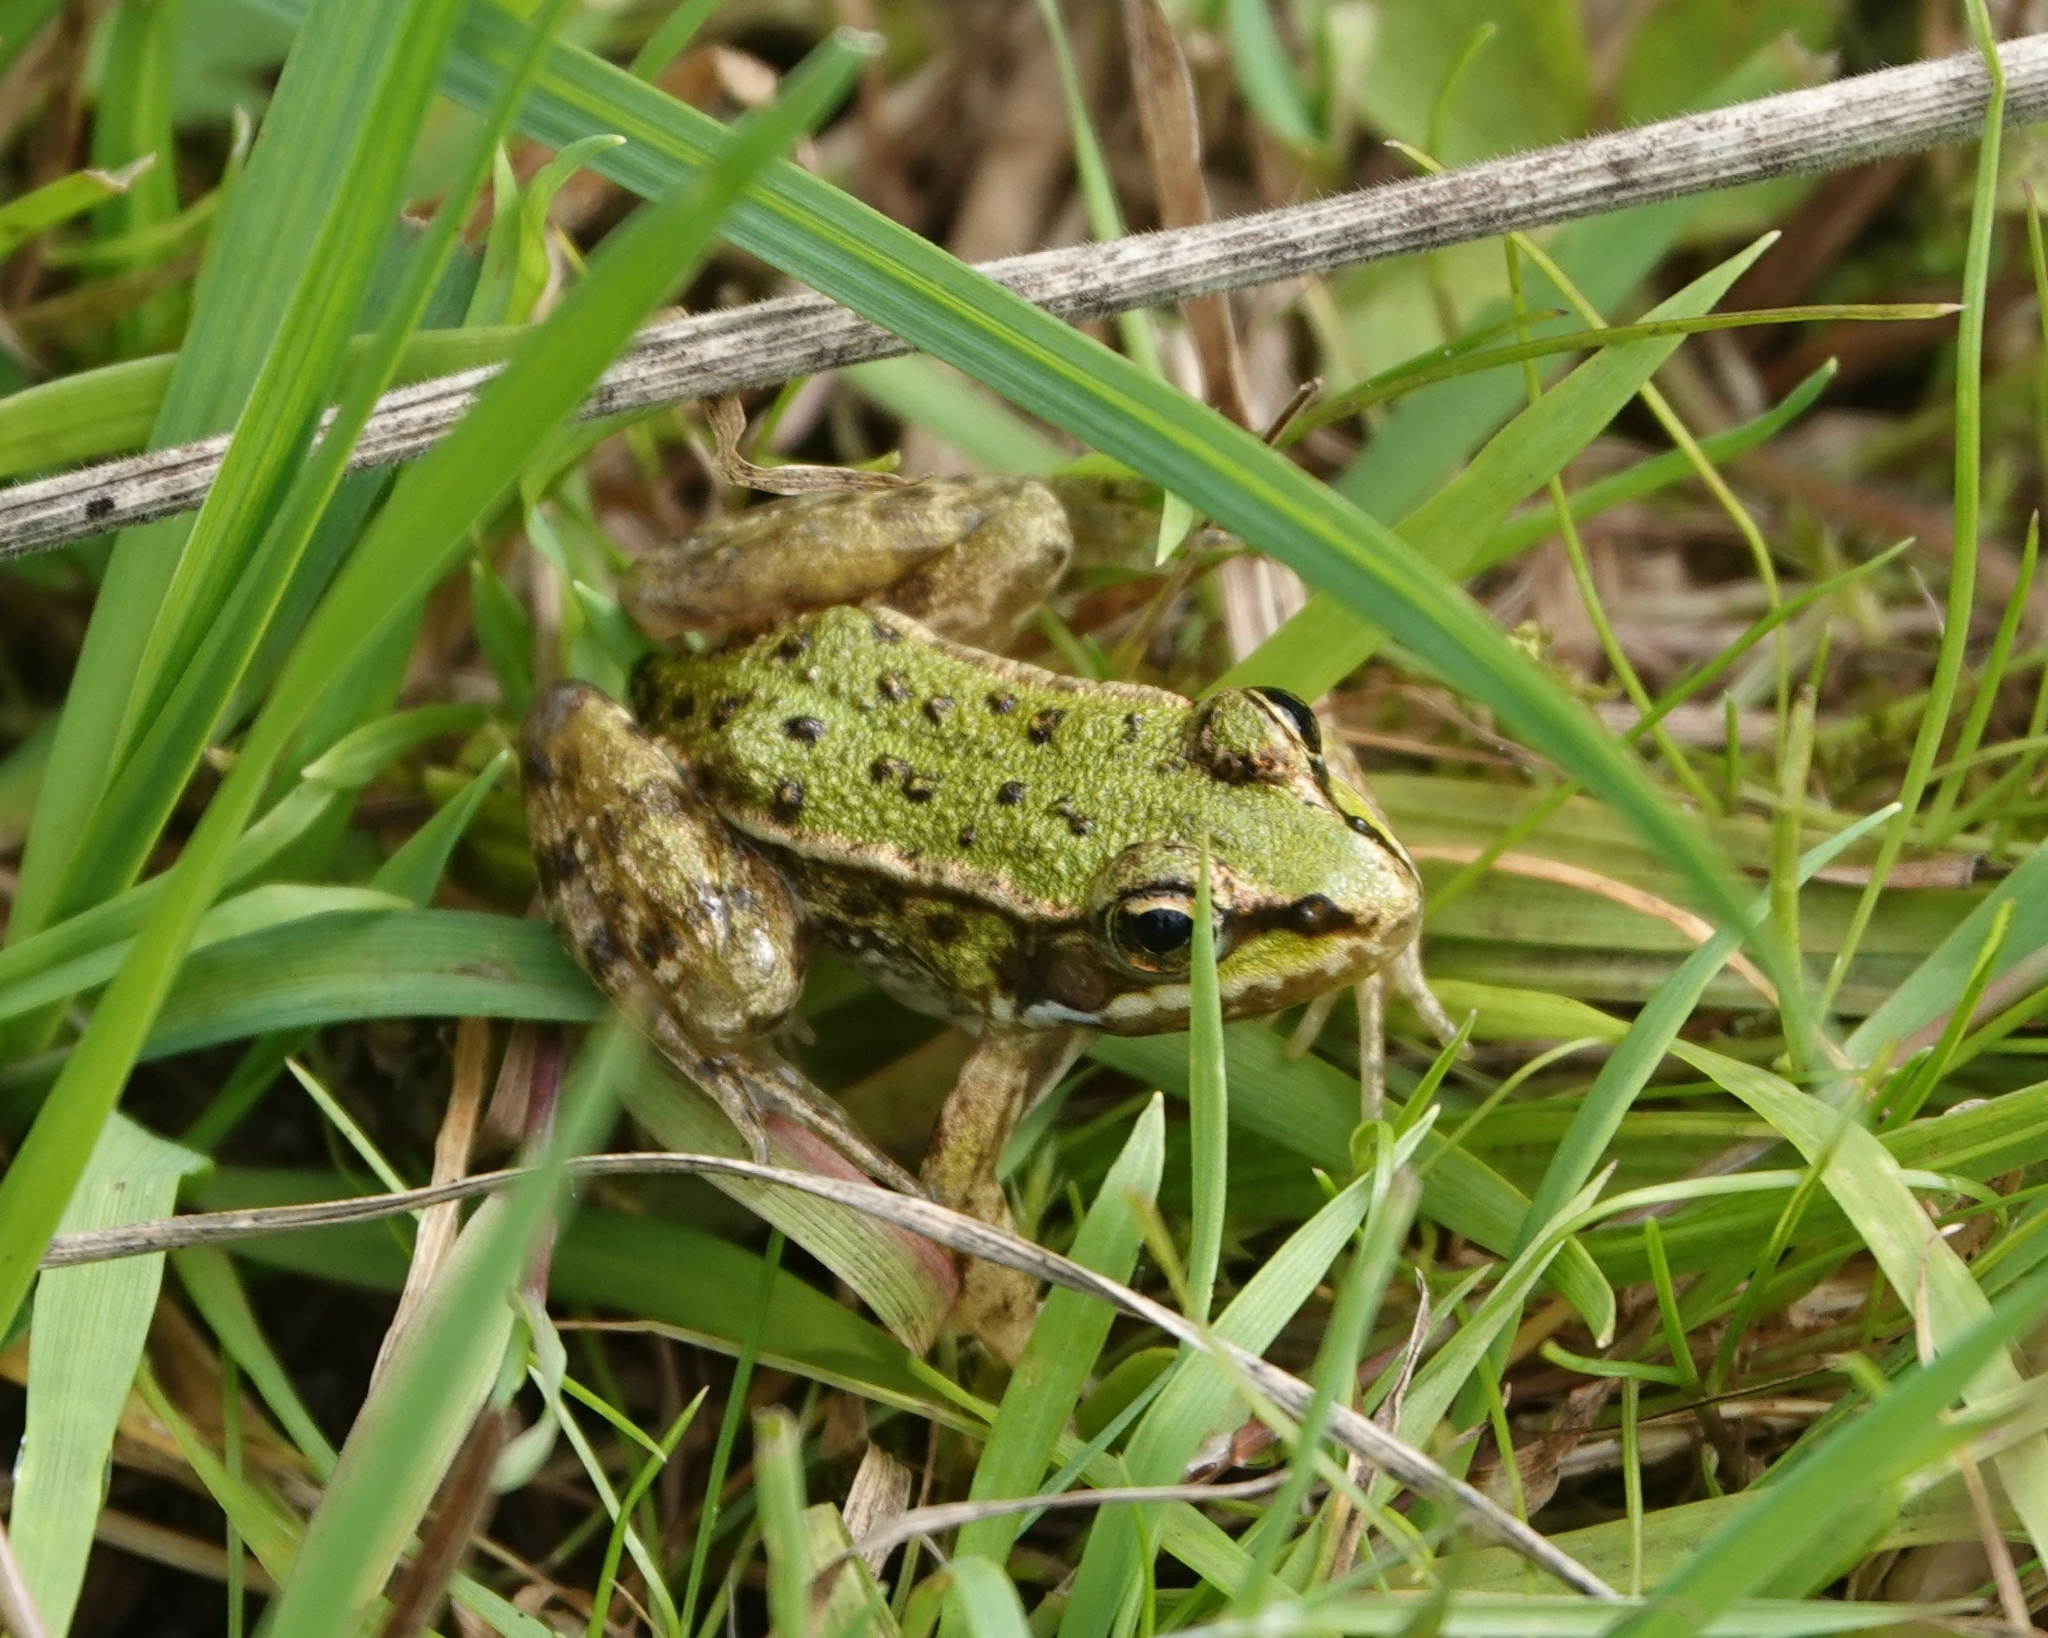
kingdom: Animalia
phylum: Chordata
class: Amphibia
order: Anura
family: Ranidae
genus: Pelophylax
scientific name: Pelophylax lessonae
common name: Pool frog
